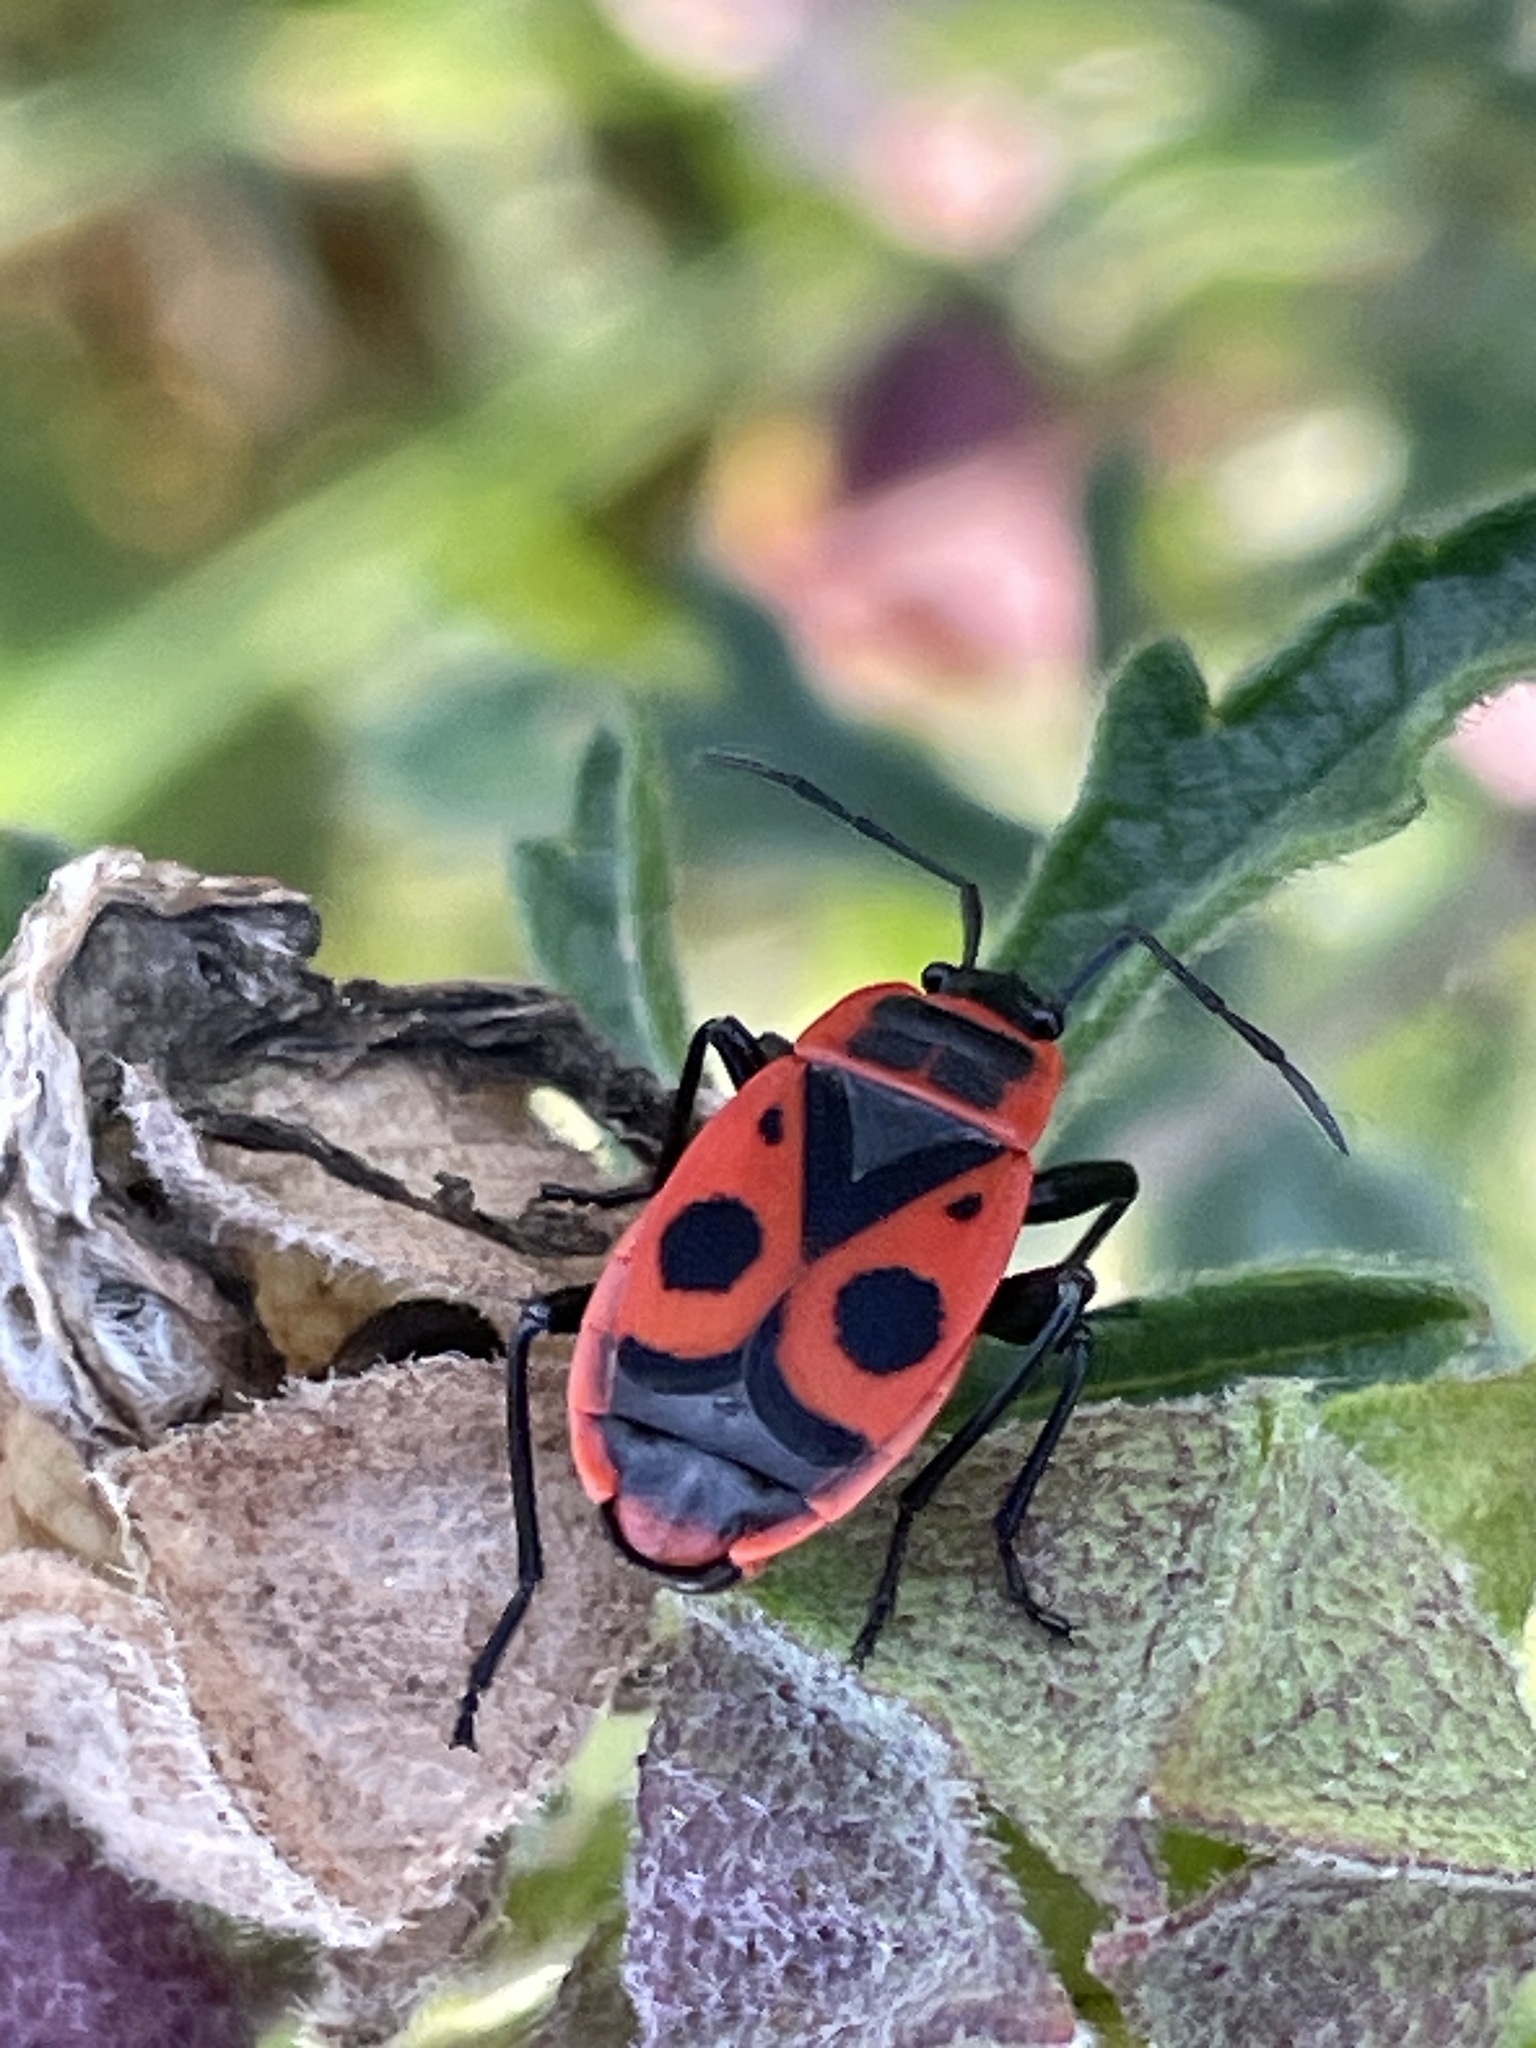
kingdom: Animalia
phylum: Arthropoda
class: Insecta
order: Hemiptera
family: Pyrrhocoridae
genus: Pyrrhocoris
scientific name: Pyrrhocoris apterus
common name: Firebug
